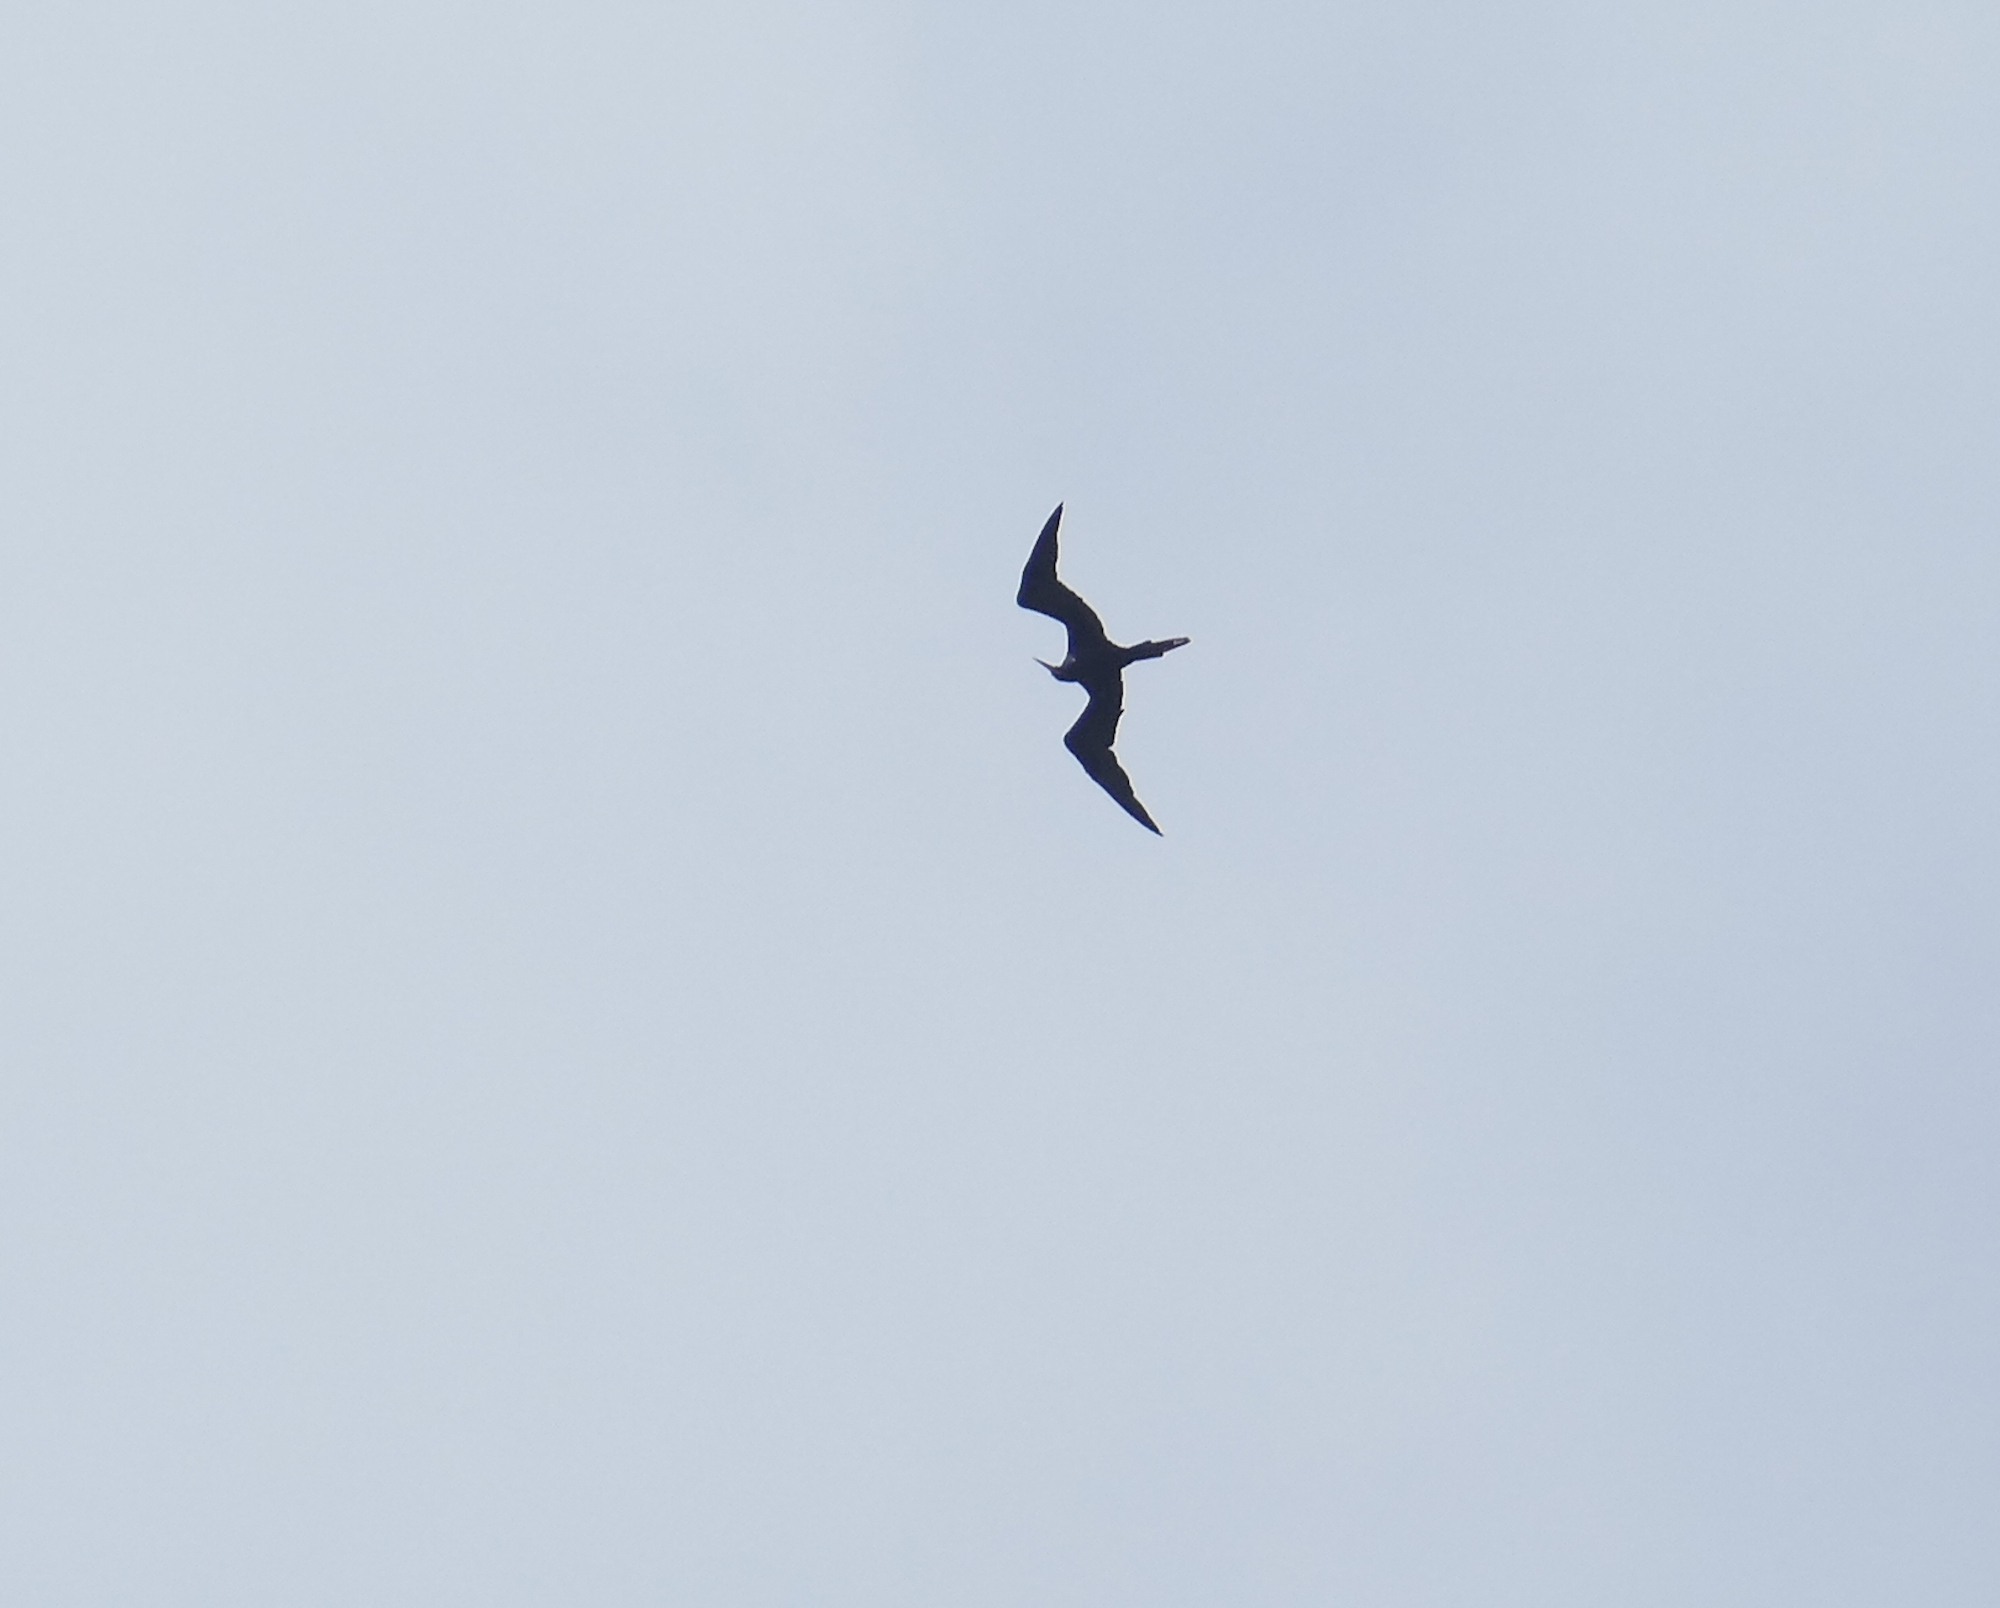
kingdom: Animalia
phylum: Chordata
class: Aves
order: Suliformes
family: Fregatidae
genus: Fregata
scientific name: Fregata magnificens
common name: Magnificent frigatebird
